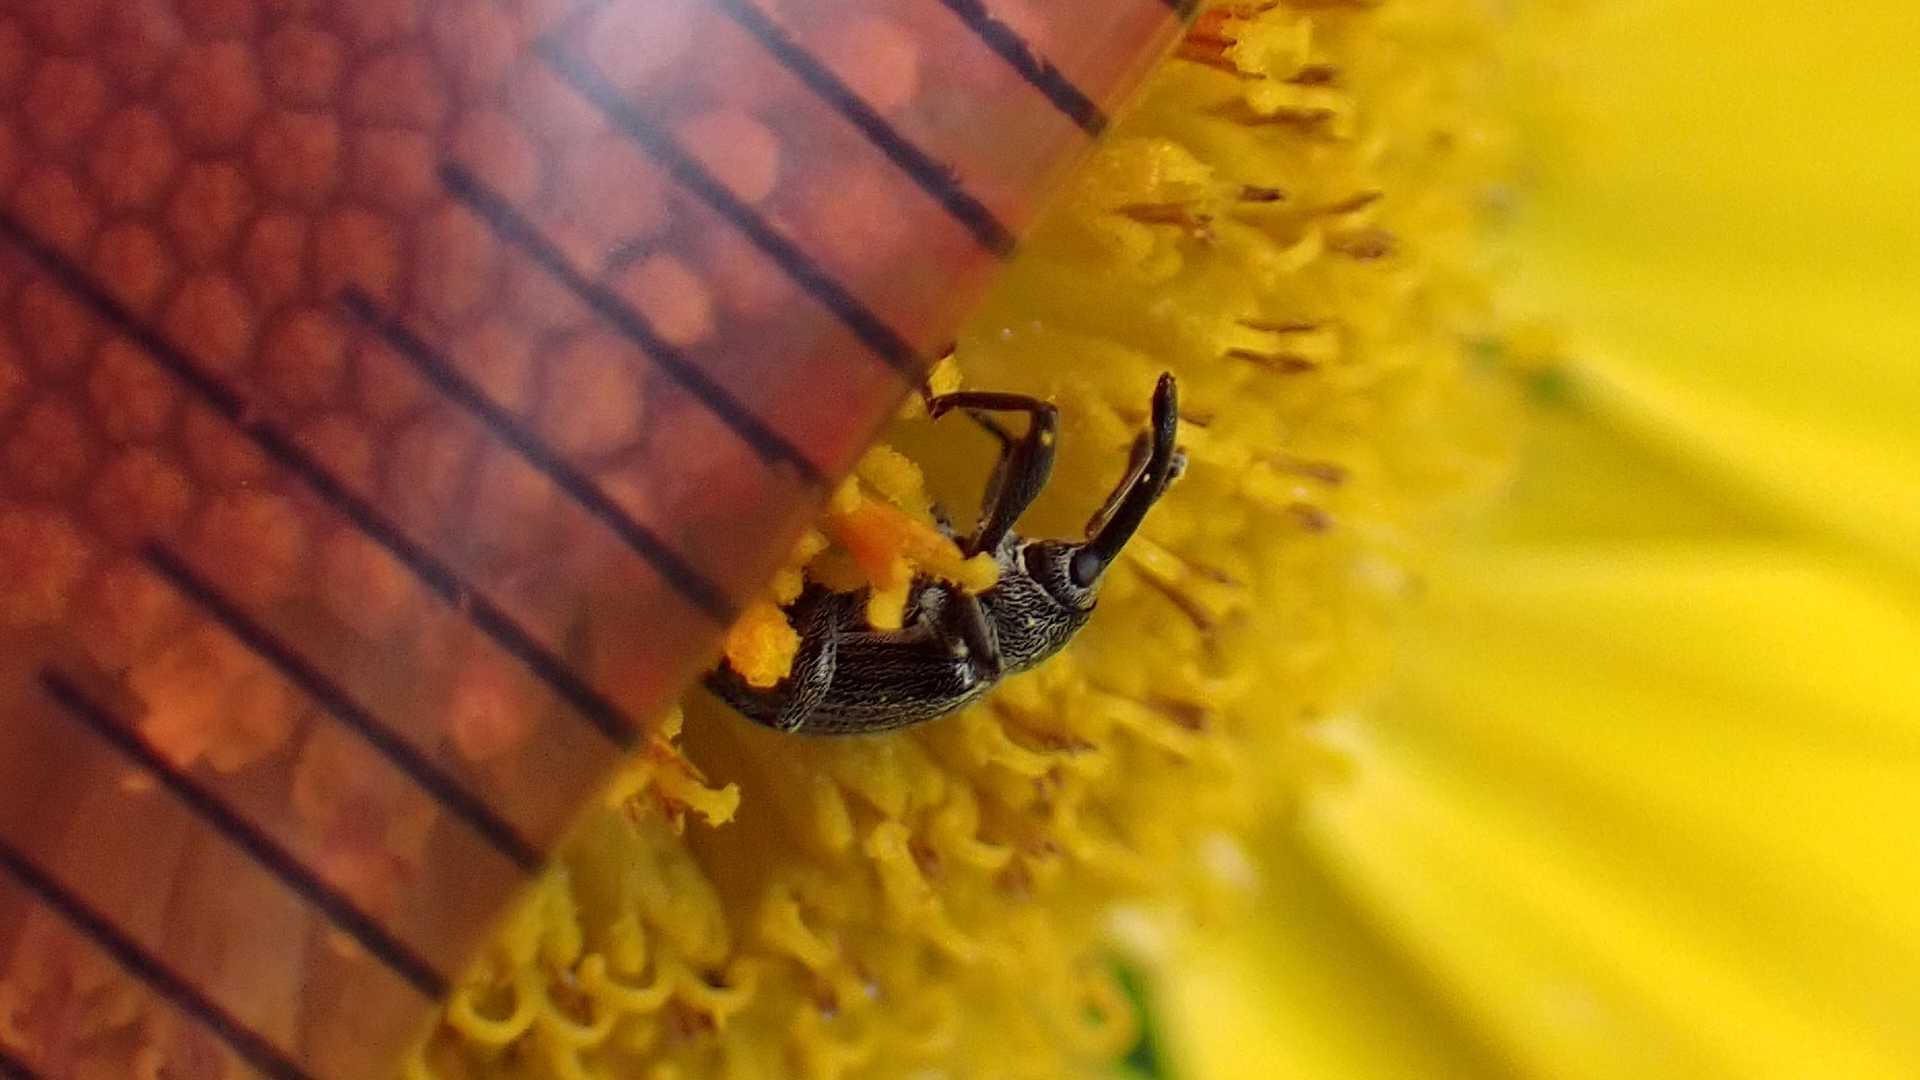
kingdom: Animalia
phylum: Arthropoda
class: Insecta
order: Coleoptera
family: Curculionidae
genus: Anthonomus
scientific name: Anthonomus rubi
